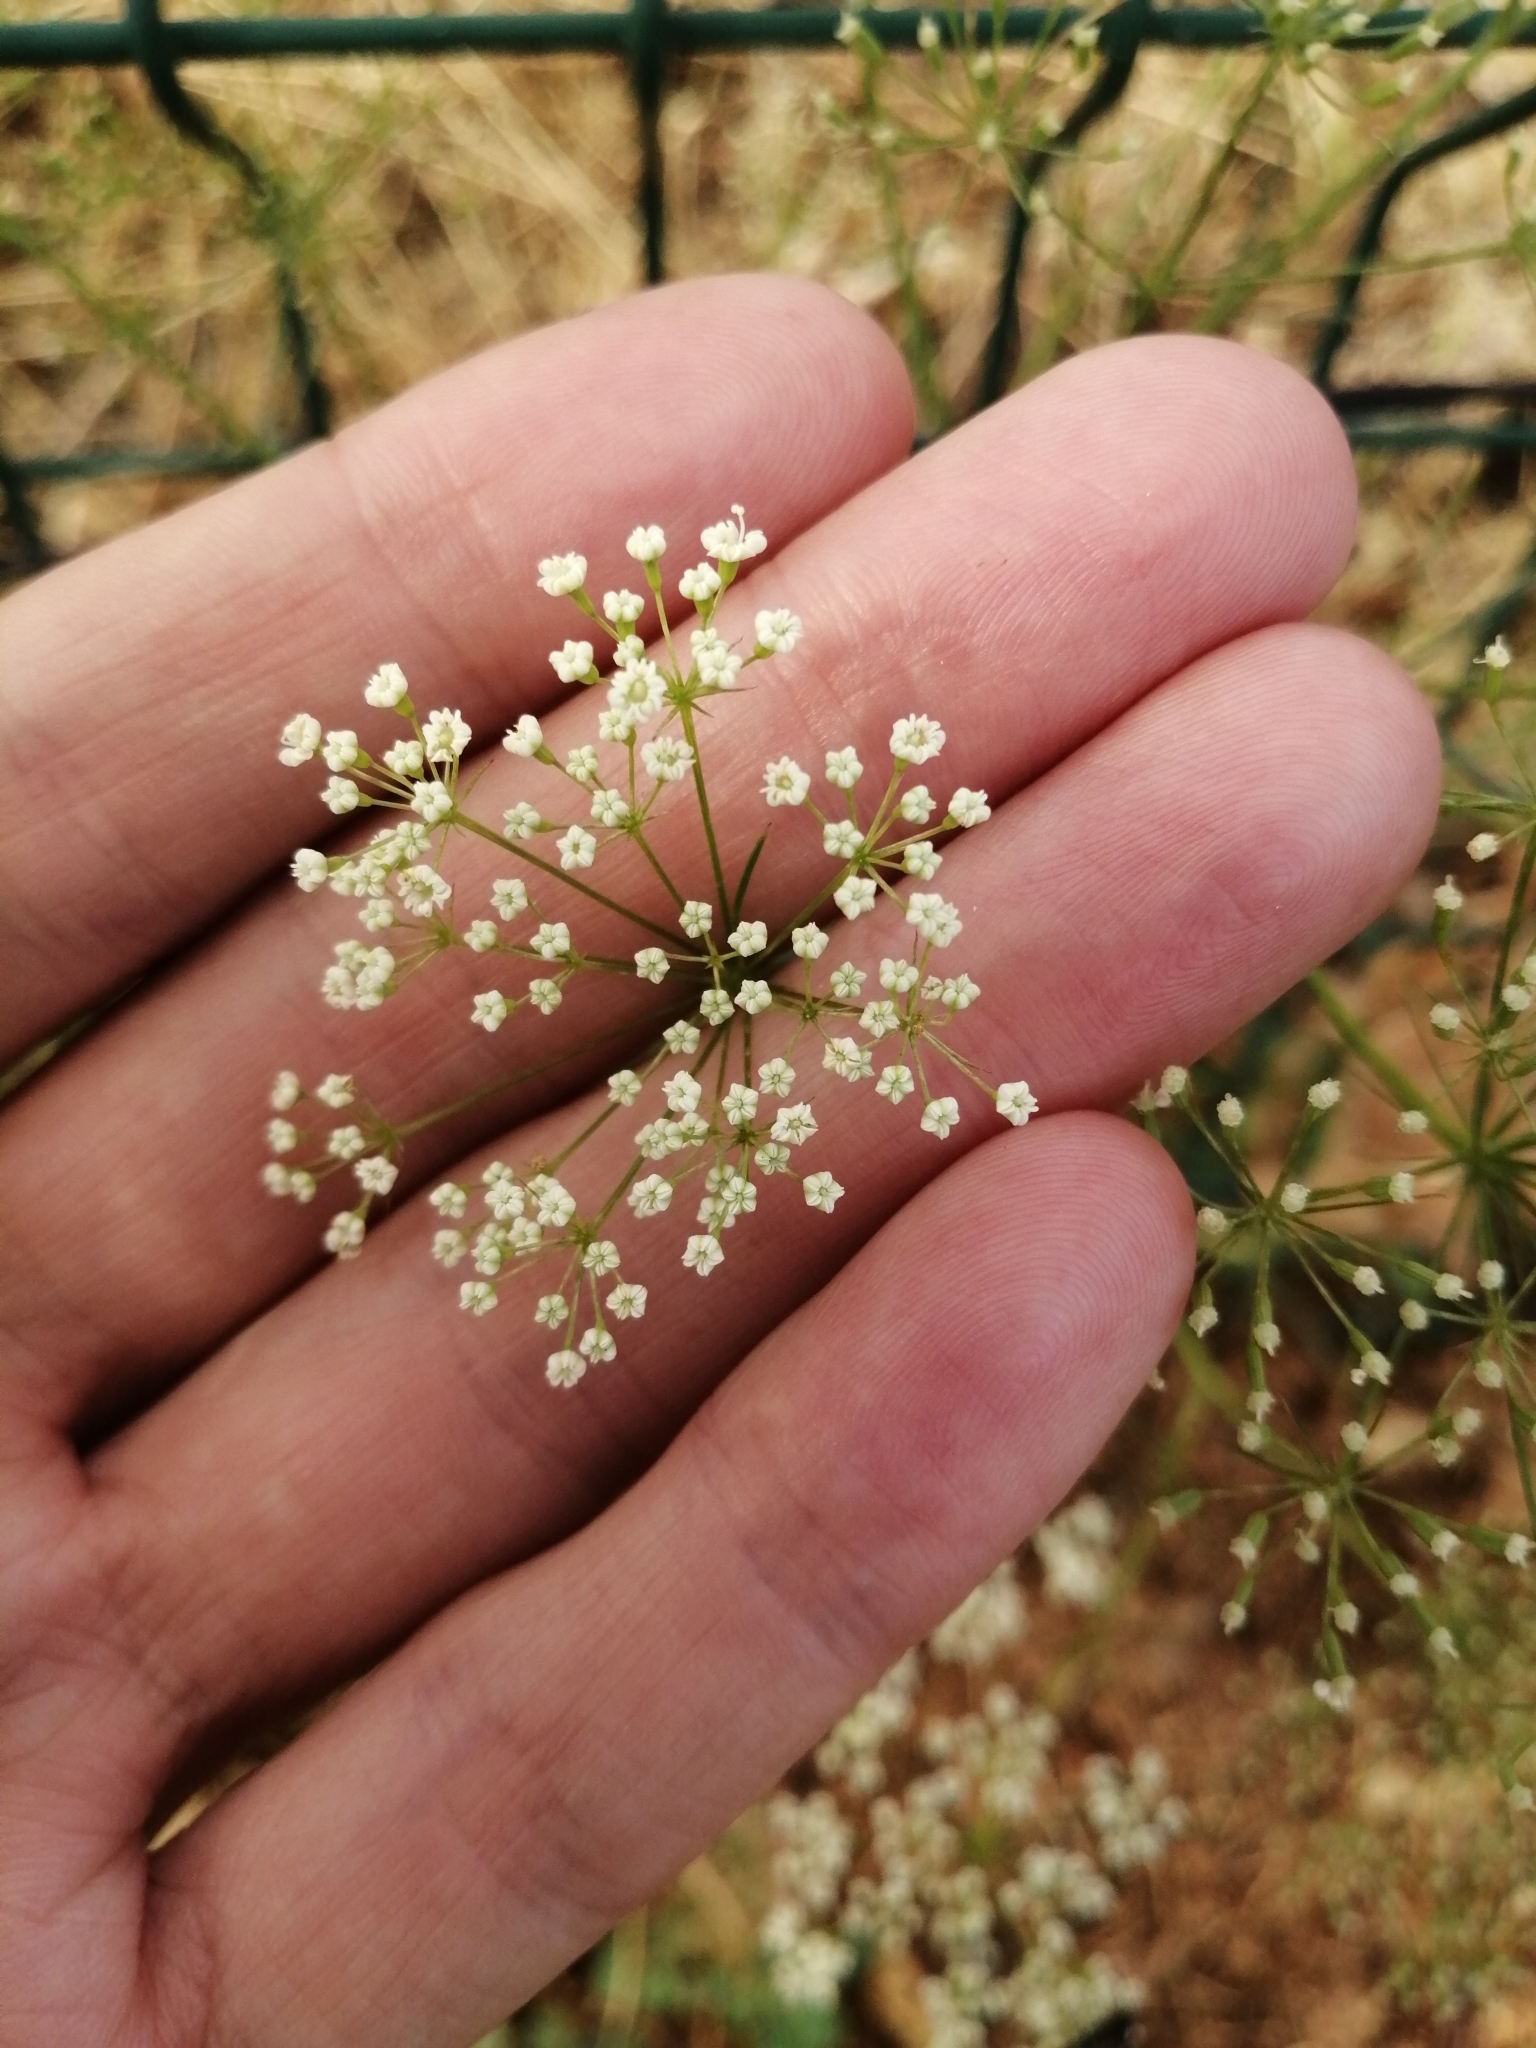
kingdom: Plantae
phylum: Tracheophyta
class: Magnoliopsida
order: Apiales
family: Apiaceae
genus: Falcaria
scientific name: Falcaria vulgaris
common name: Longleaf
